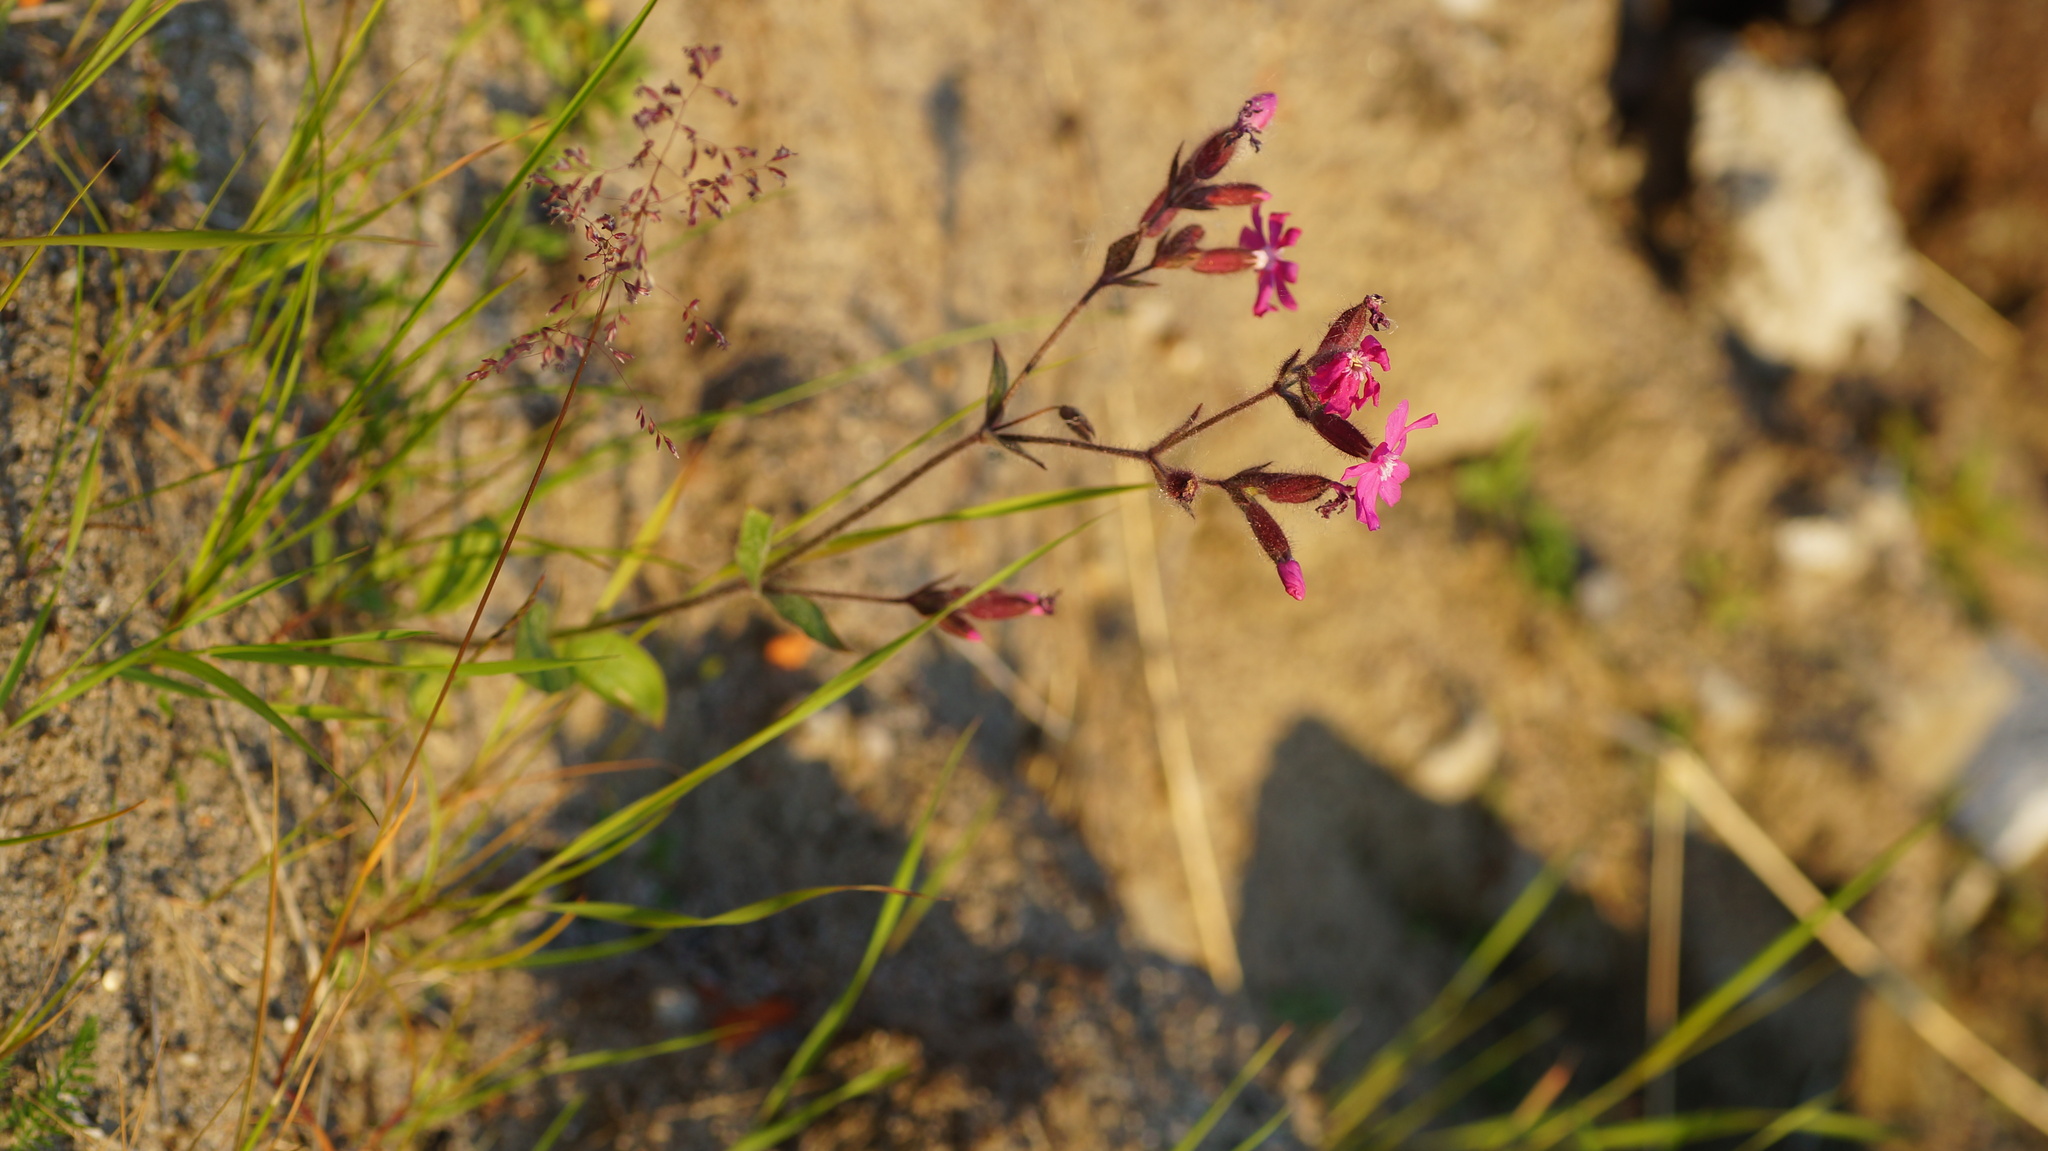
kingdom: Plantae
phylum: Tracheophyta
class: Magnoliopsida
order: Caryophyllales
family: Caryophyllaceae
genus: Silene
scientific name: Silene dioica
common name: Red campion
